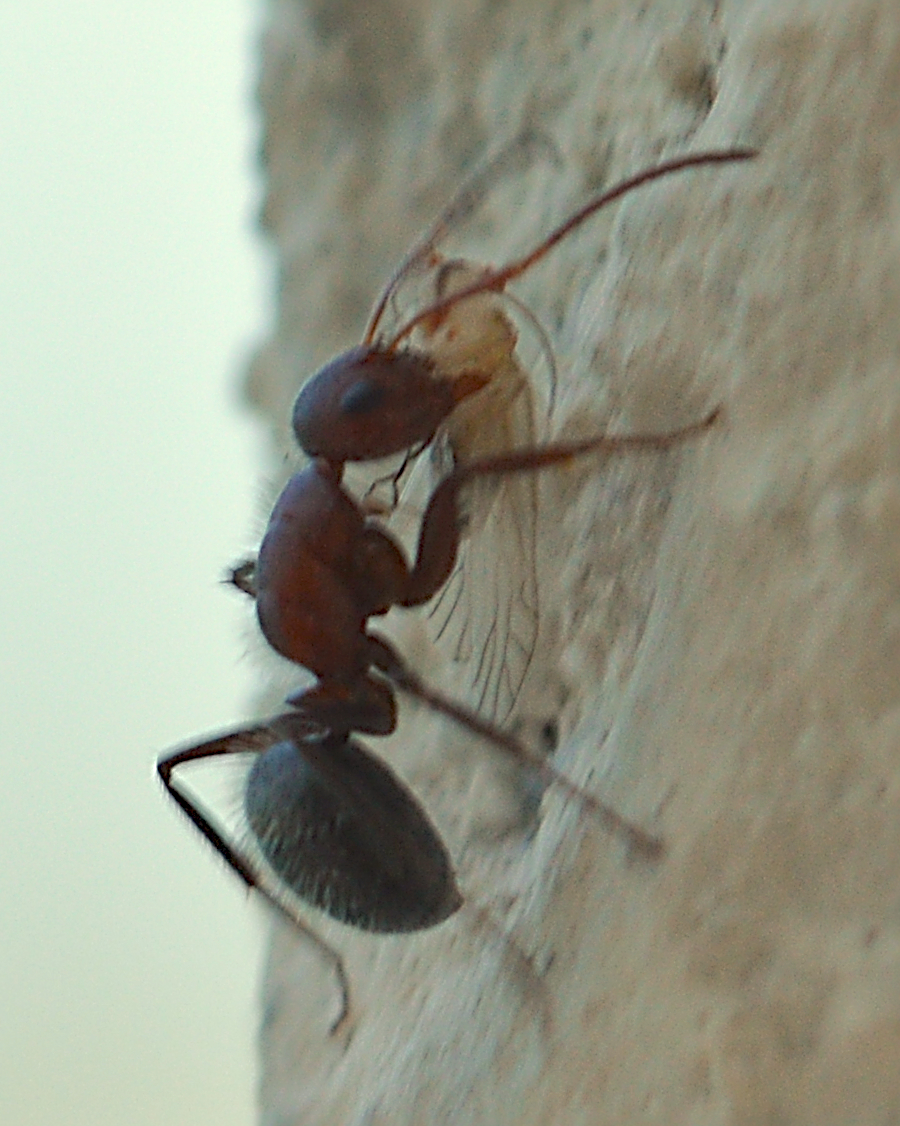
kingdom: Animalia
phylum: Arthropoda
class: Insecta
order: Hymenoptera
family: Formicidae
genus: Camponotus
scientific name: Camponotus planatus
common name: Compact carpenter ant
